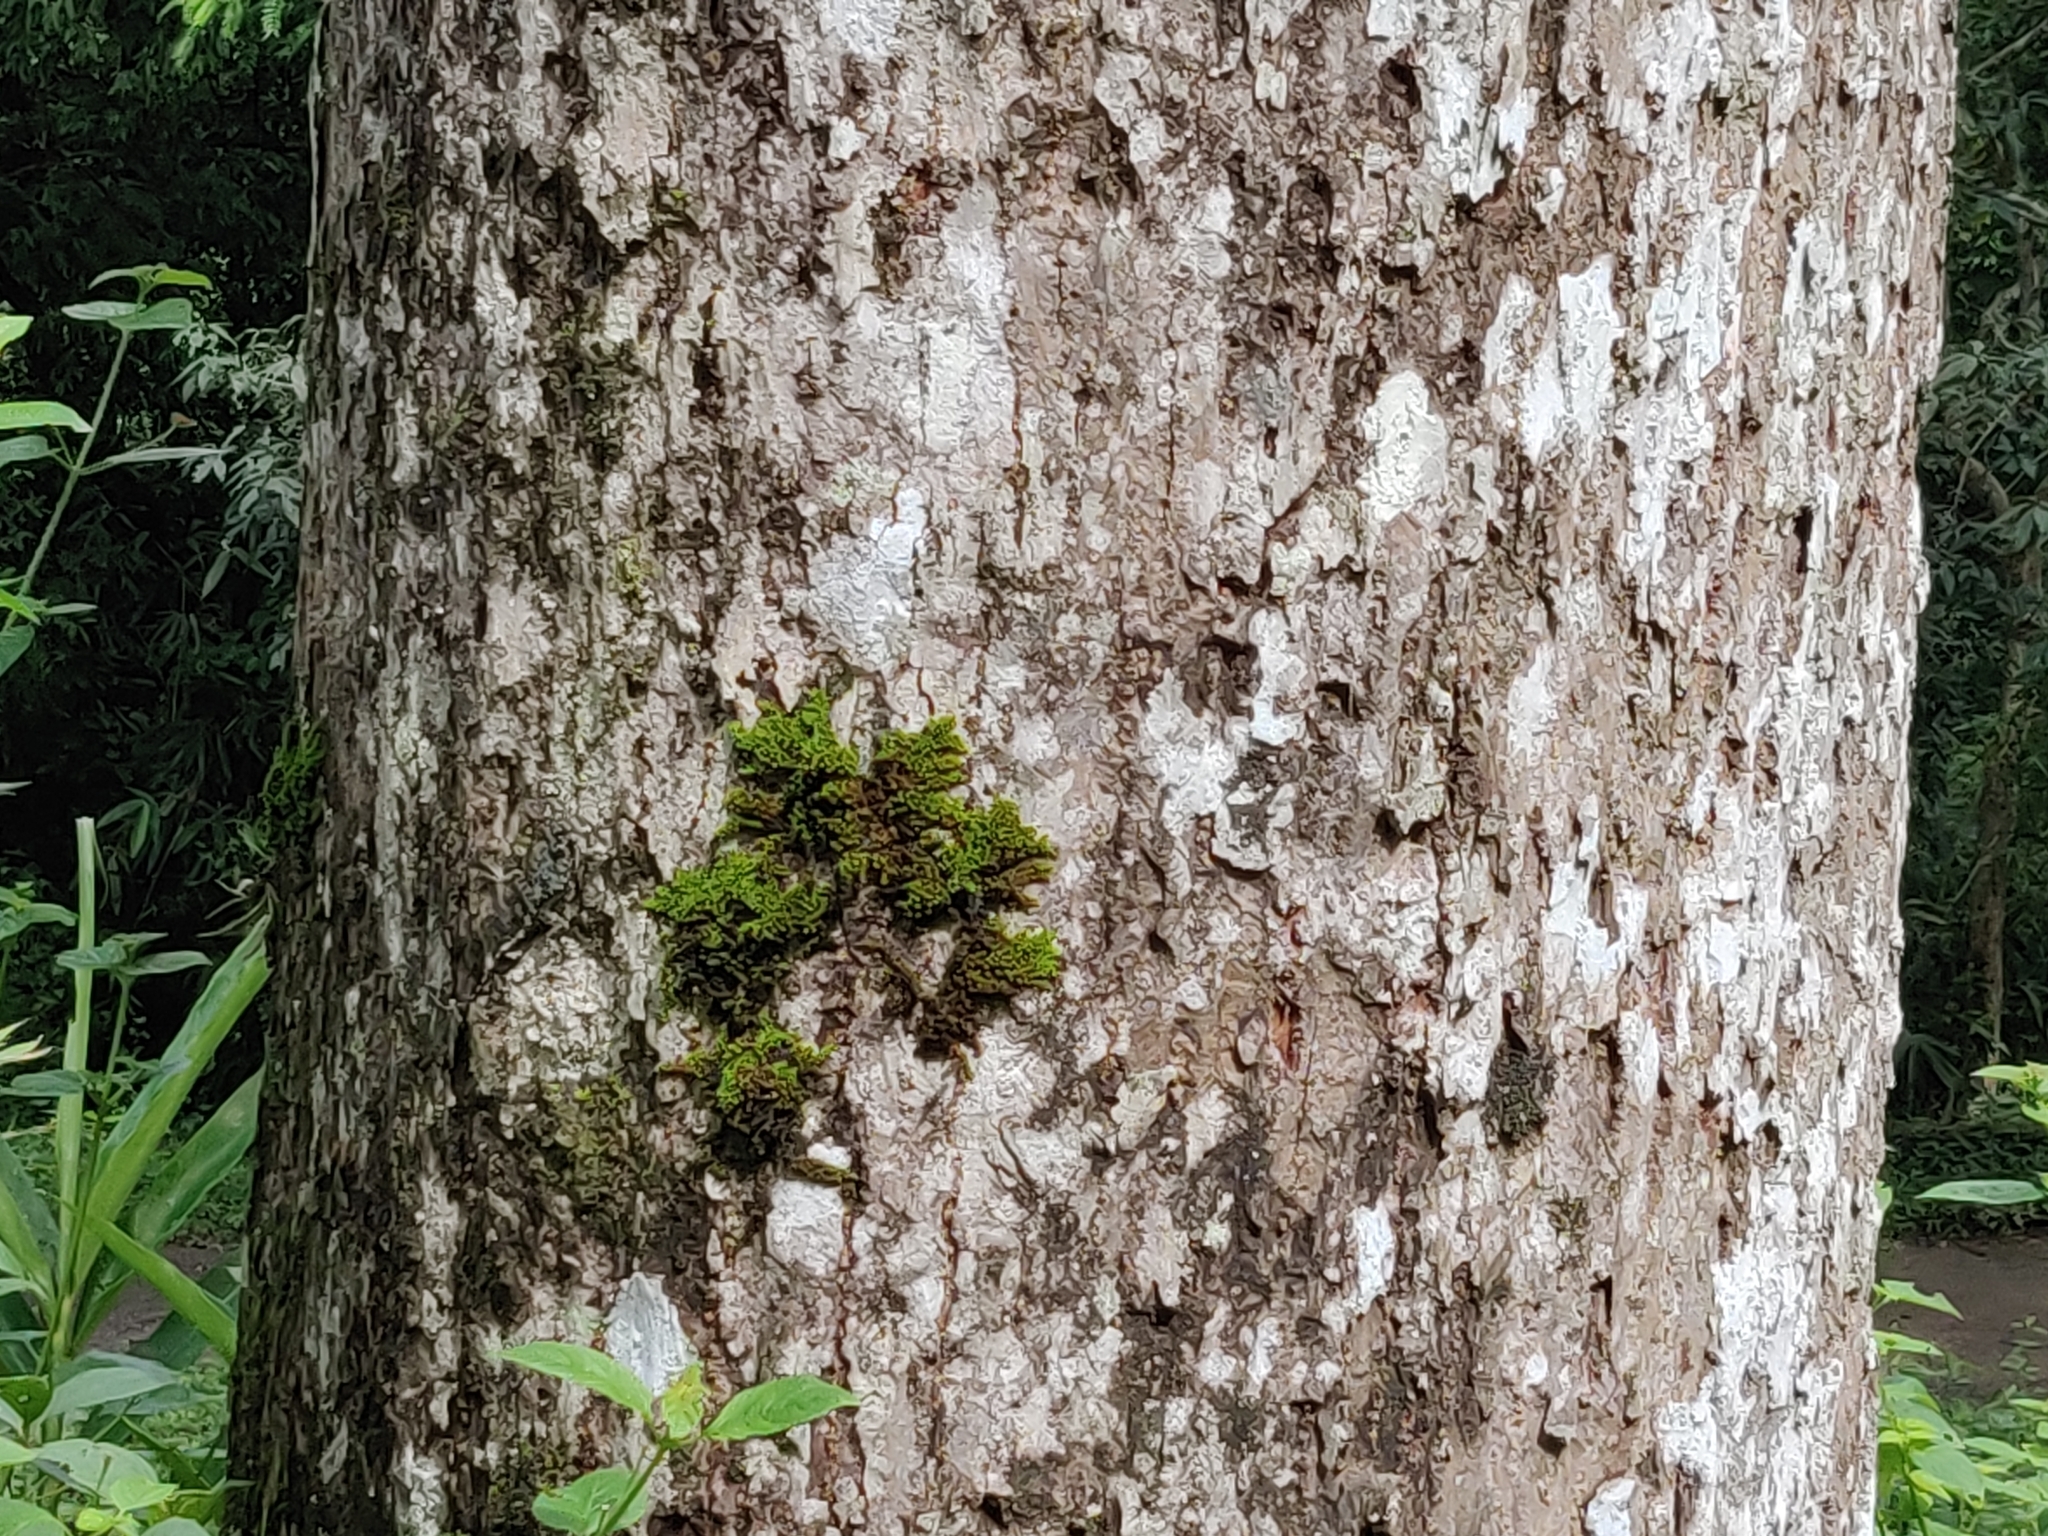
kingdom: Plantae
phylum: Tracheophyta
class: Magnoliopsida
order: Malvales
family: Malvaceae
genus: Bombax
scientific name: Bombax ceiba
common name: Northern-cottonwood
